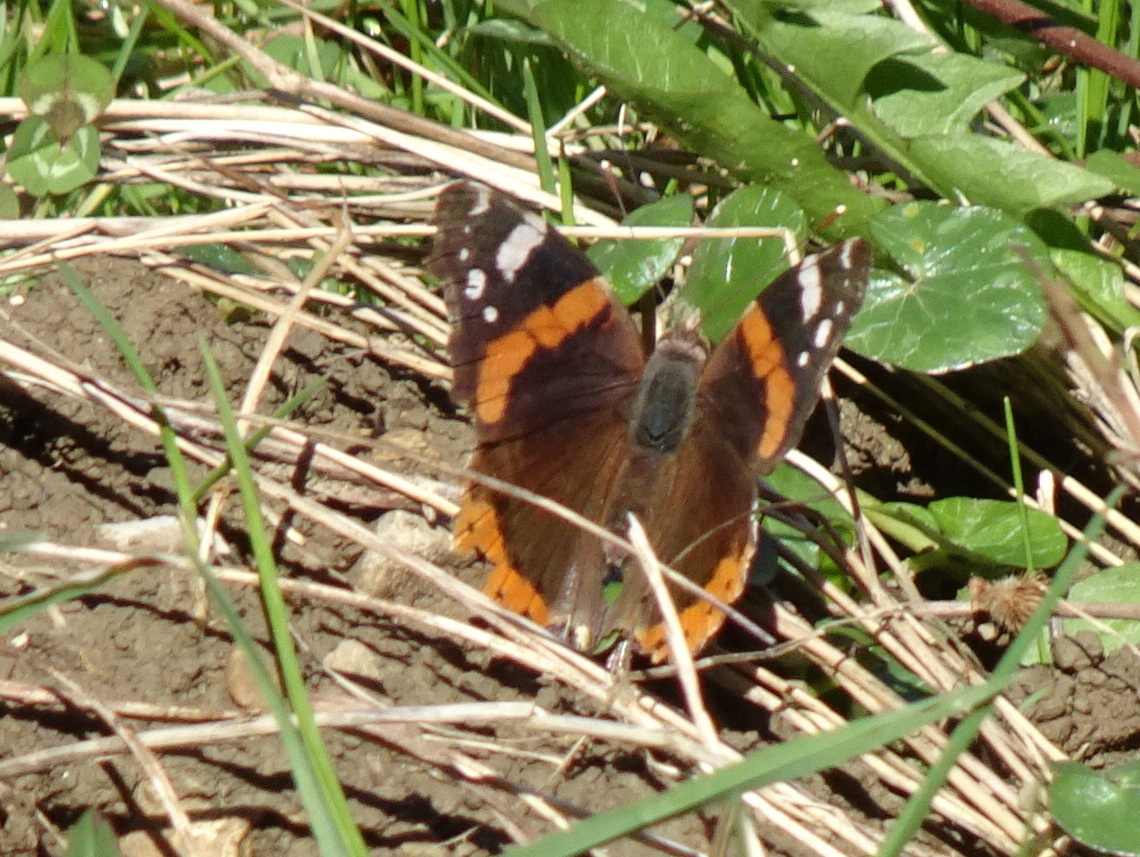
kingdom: Animalia
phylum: Arthropoda
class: Insecta
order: Lepidoptera
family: Nymphalidae
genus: Vanessa
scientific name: Vanessa atalanta
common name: Red admiral
